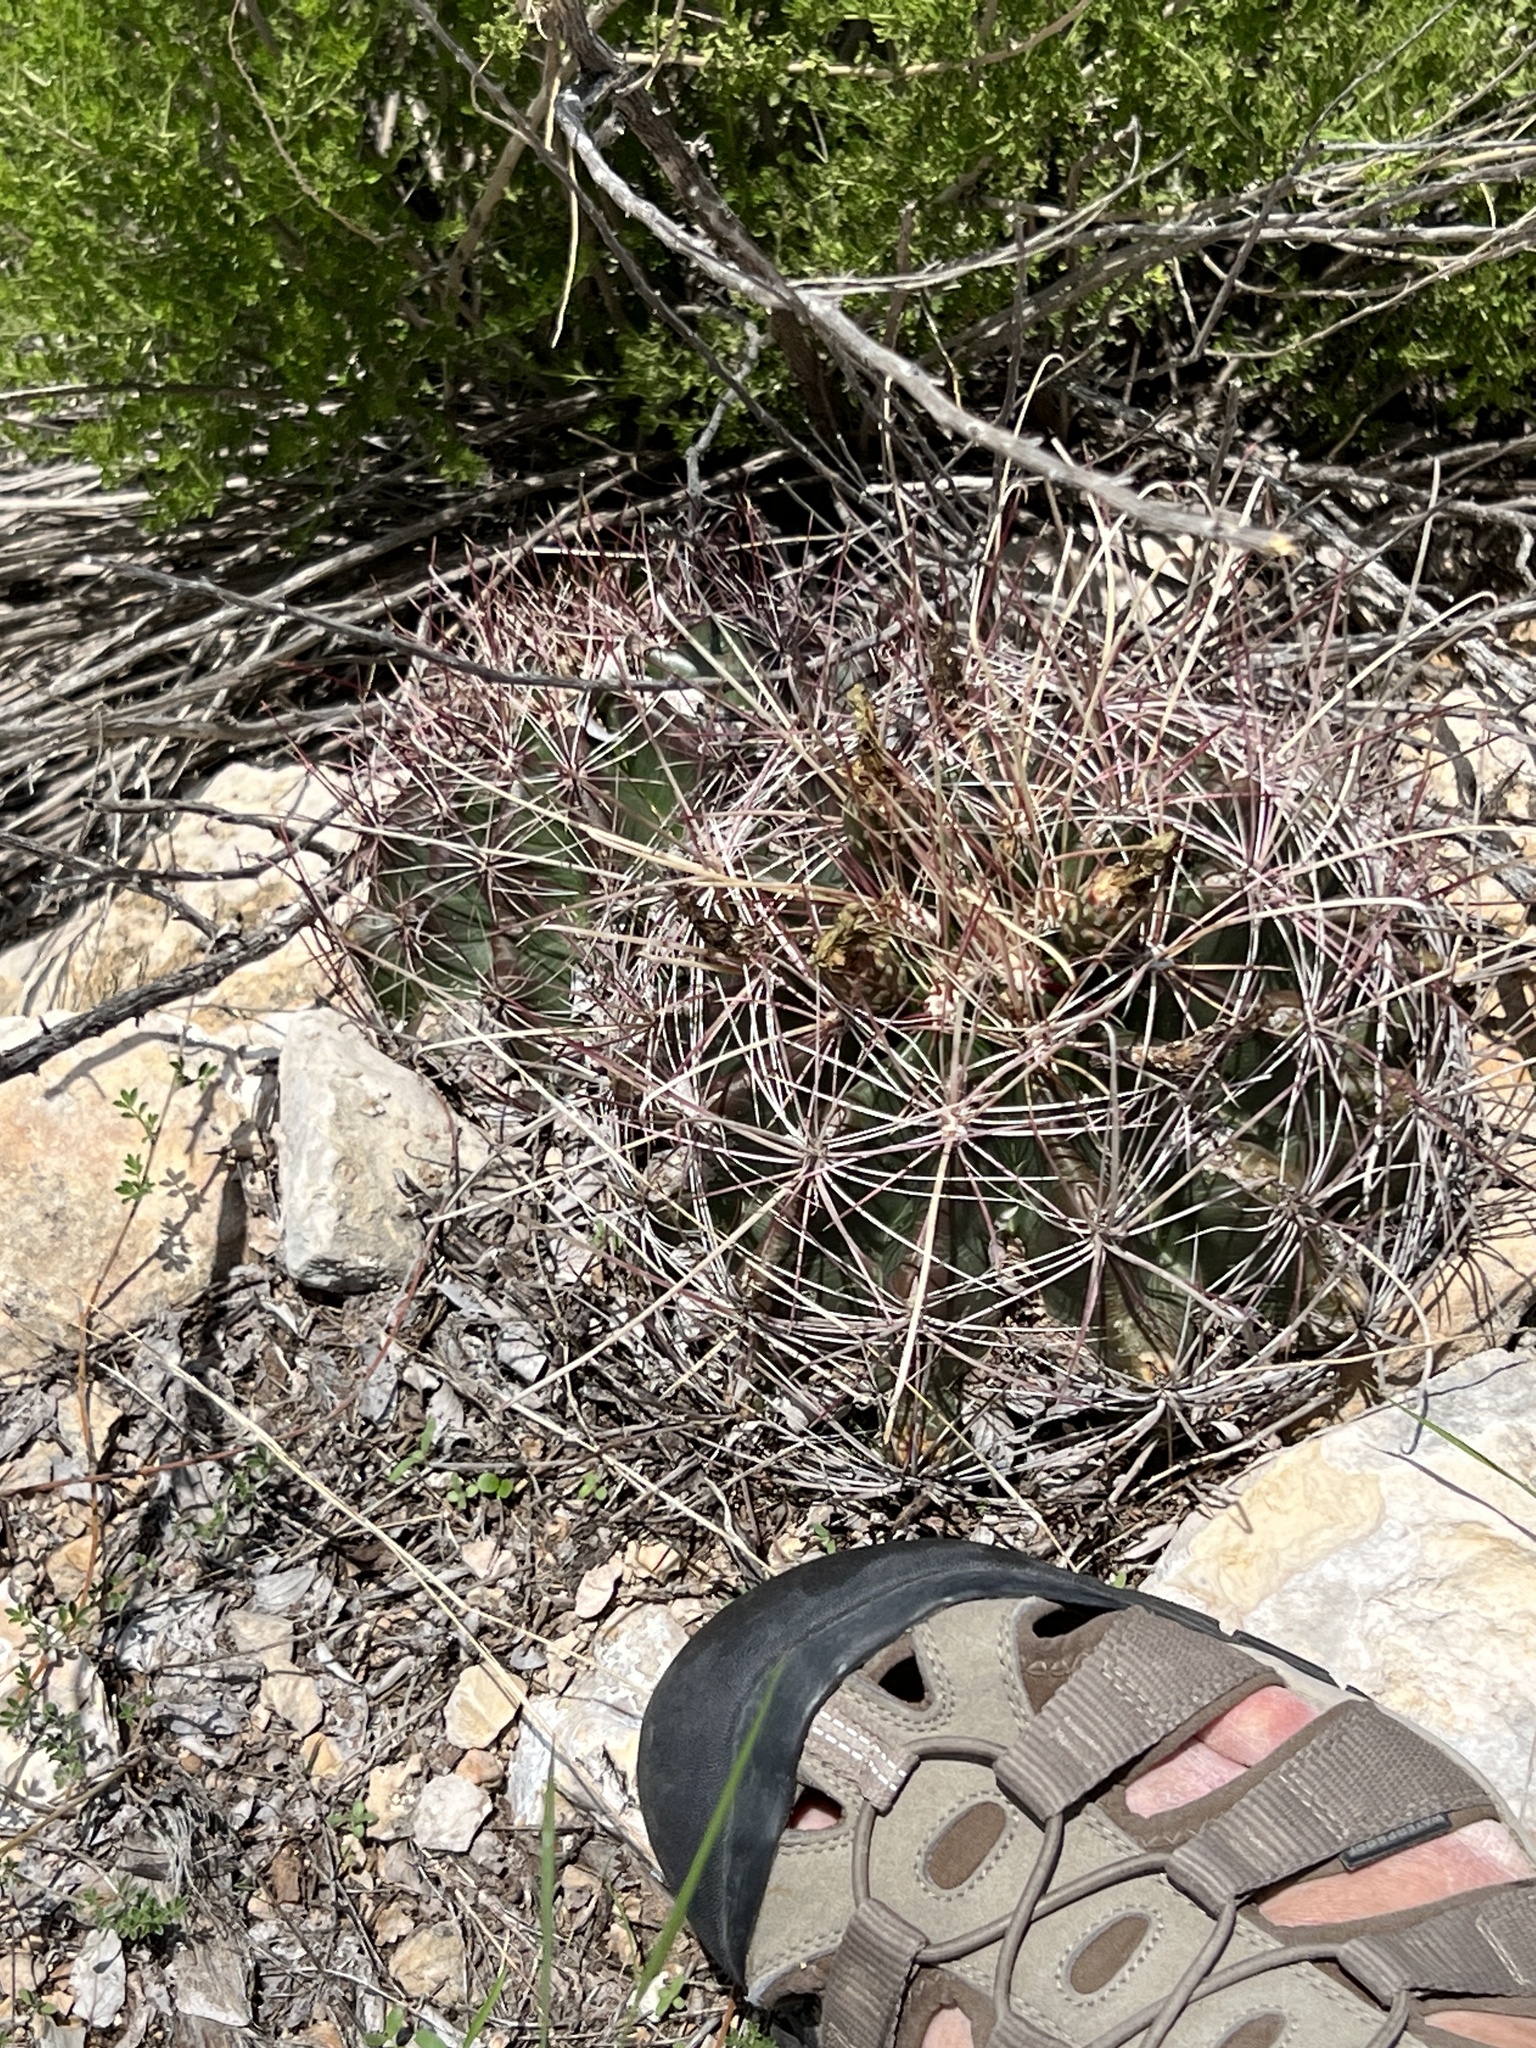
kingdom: Plantae
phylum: Tracheophyta
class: Magnoliopsida
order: Caryophyllales
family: Cactaceae
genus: Bisnaga
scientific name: Bisnaga hamatacantha
